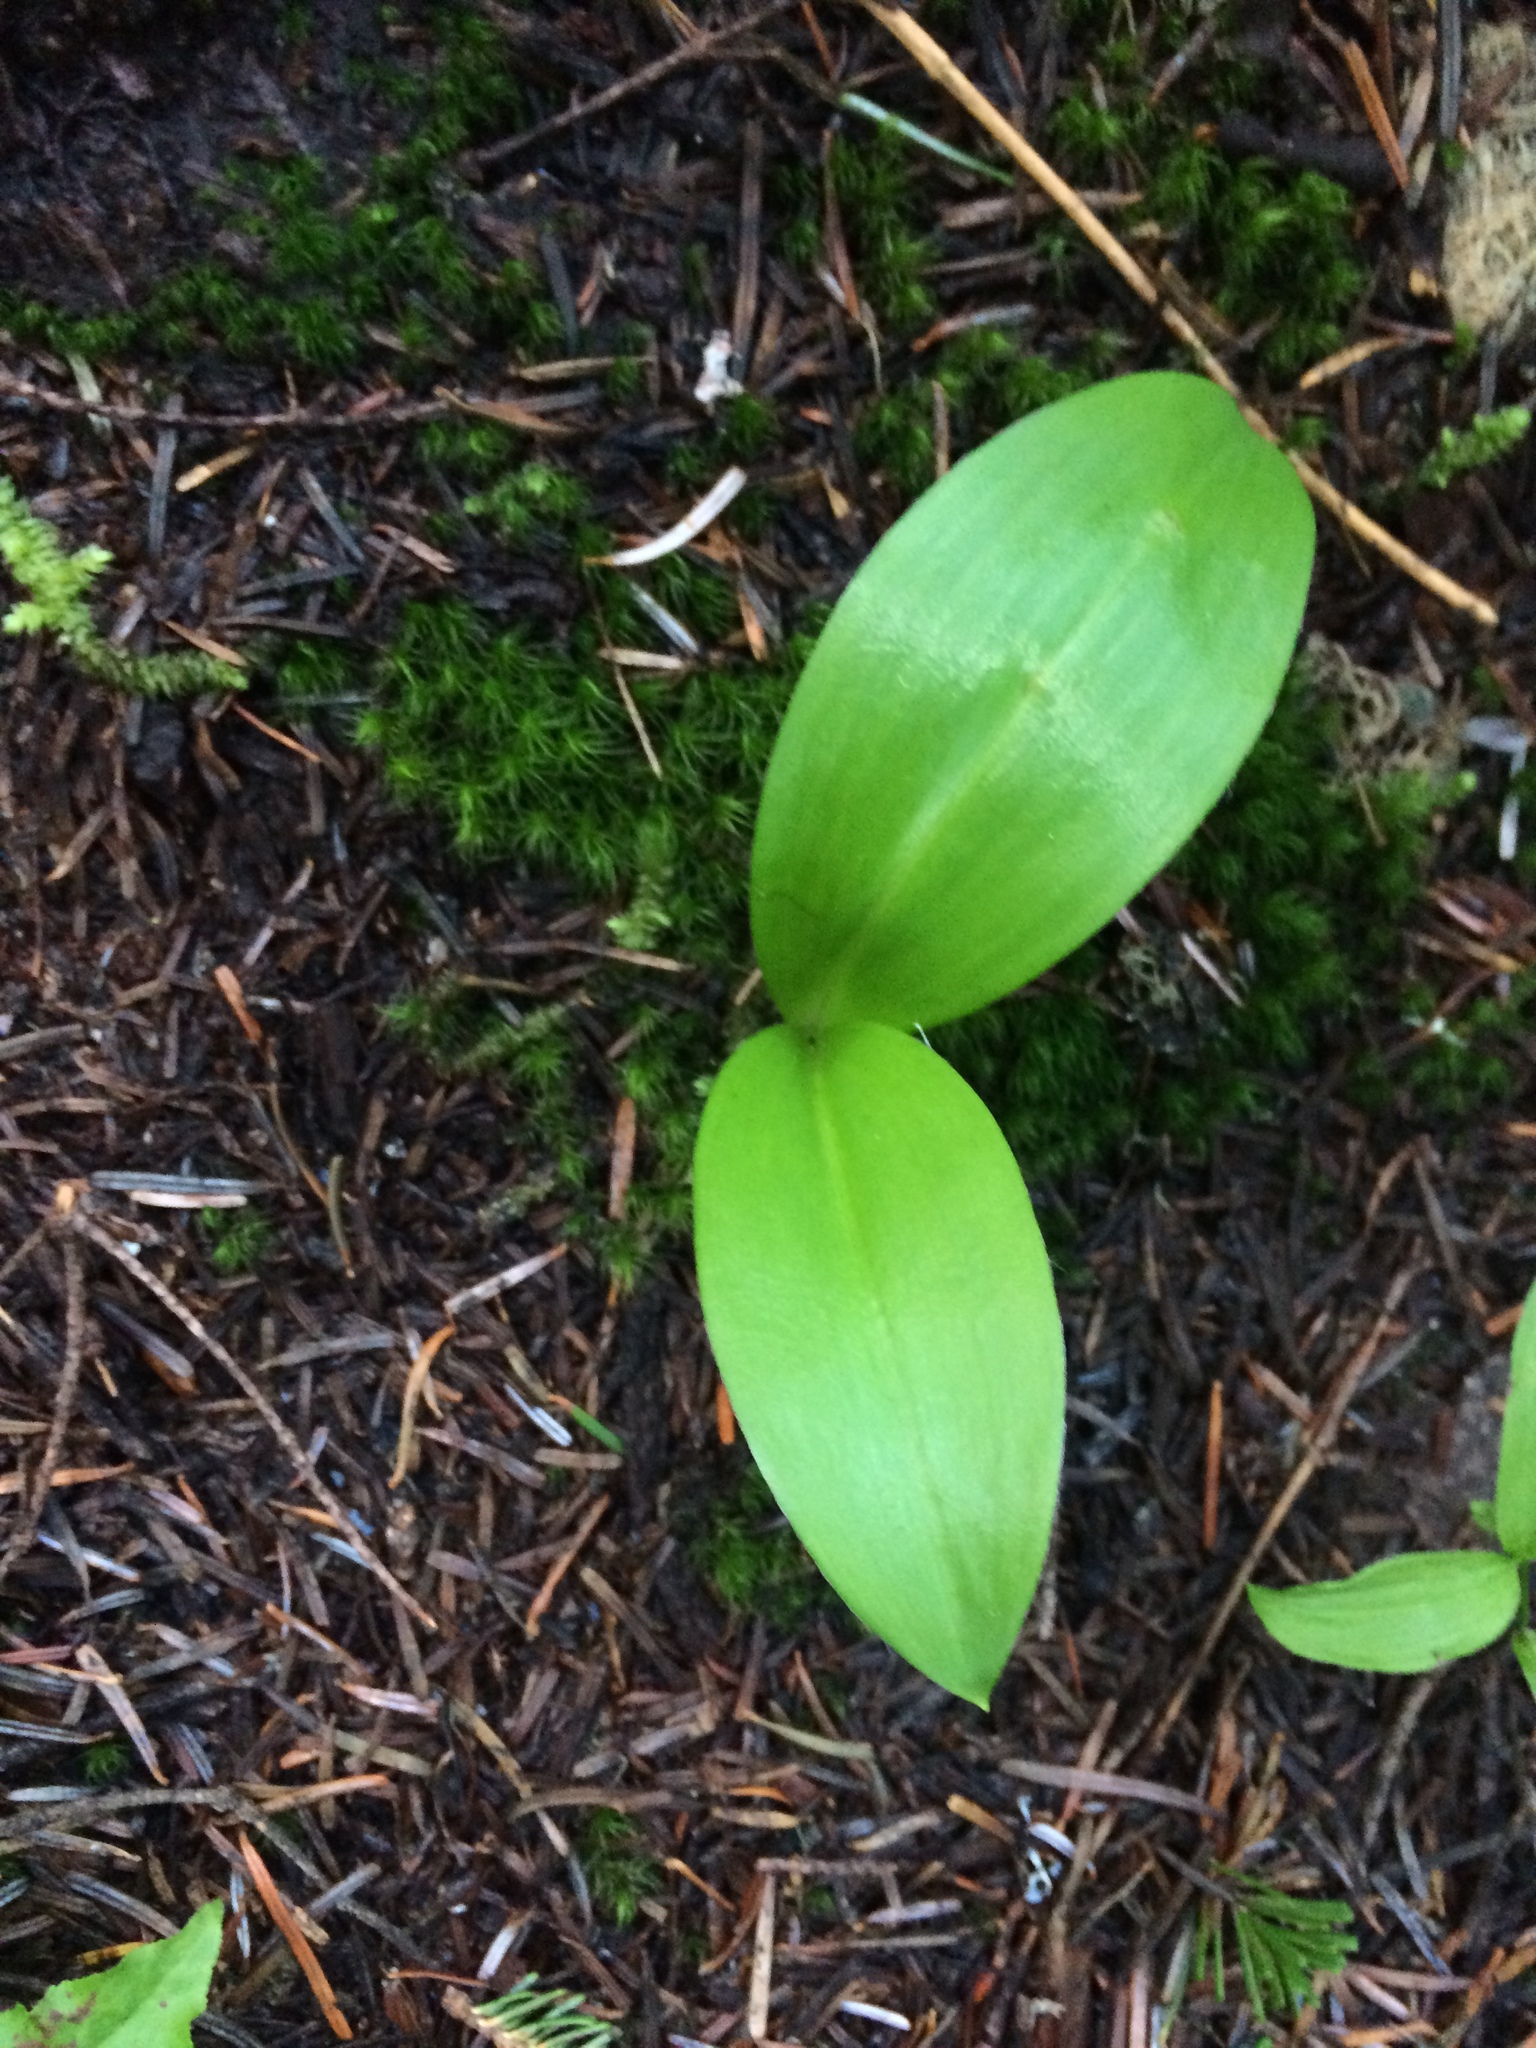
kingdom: Plantae
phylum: Tracheophyta
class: Liliopsida
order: Liliales
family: Liliaceae
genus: Clintonia
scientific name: Clintonia uniflora
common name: Queen's cup
